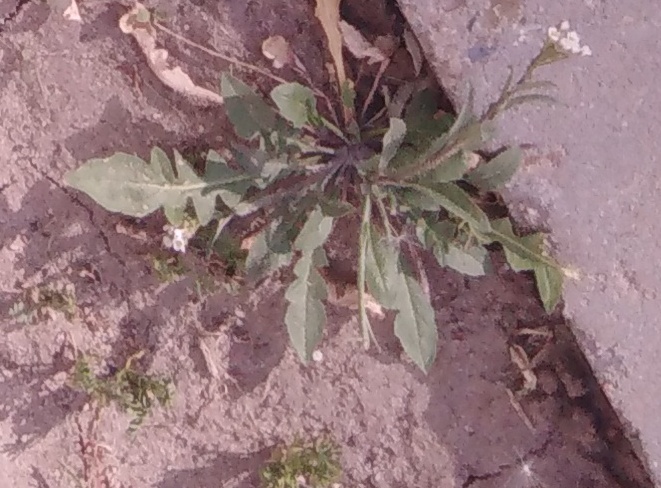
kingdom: Plantae
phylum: Tracheophyta
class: Magnoliopsida
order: Brassicales
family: Brassicaceae
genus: Capsella
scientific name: Capsella bursa-pastoris
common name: Shepherd's purse
